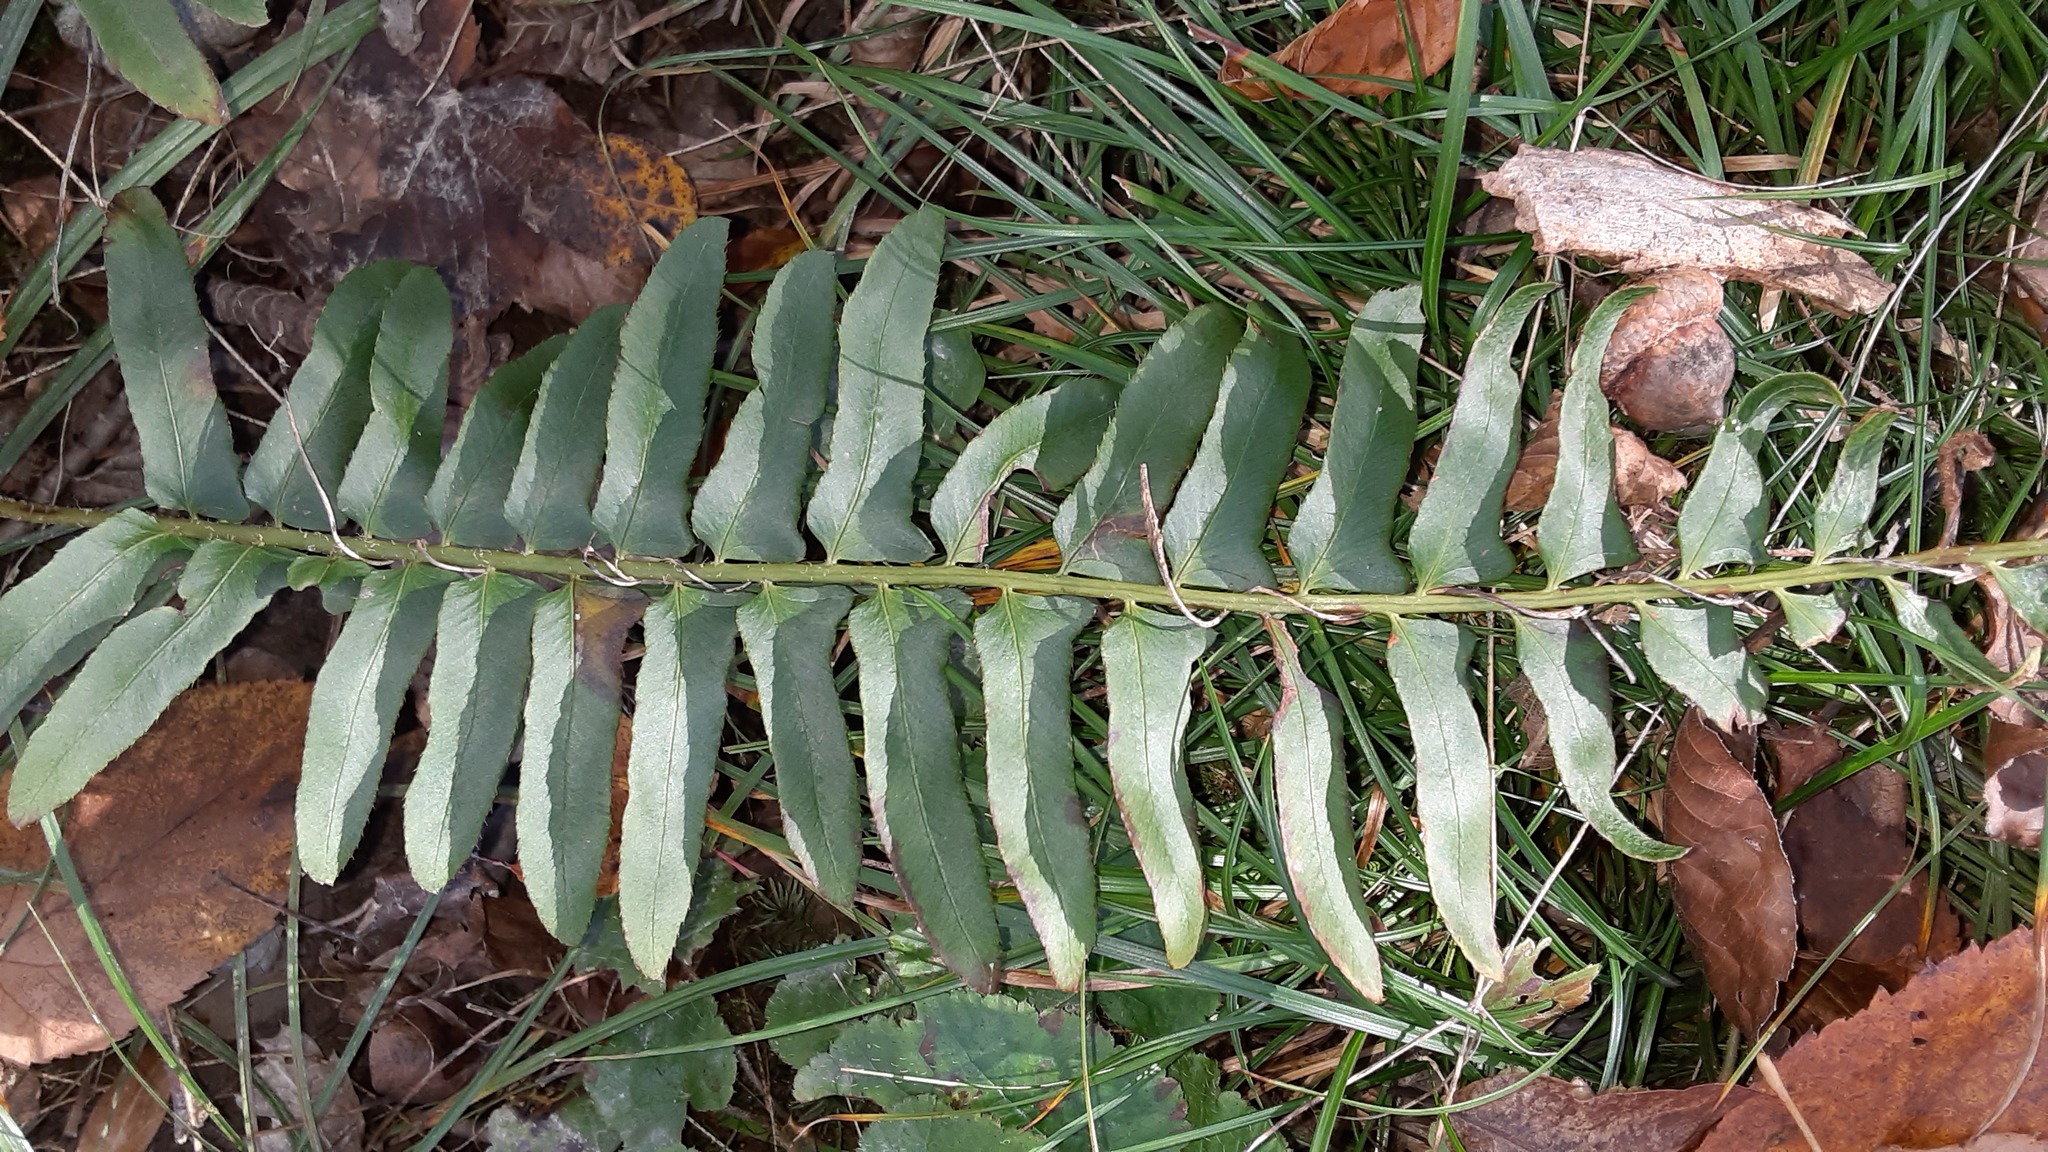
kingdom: Plantae
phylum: Tracheophyta
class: Polypodiopsida
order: Polypodiales
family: Dryopteridaceae
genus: Polystichum
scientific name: Polystichum acrostichoides
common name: Christmas fern
